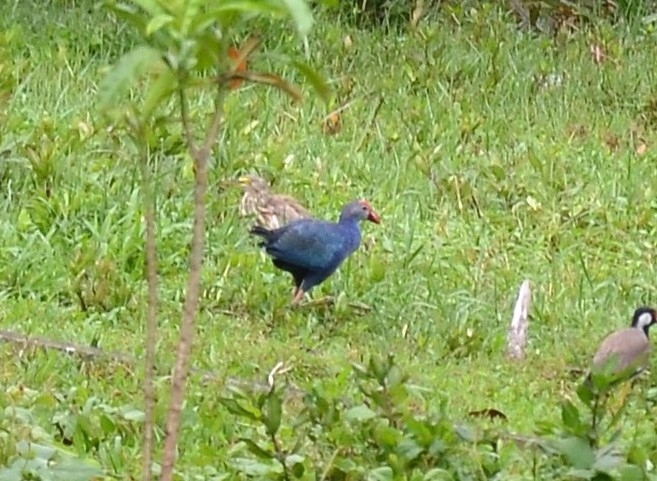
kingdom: Animalia
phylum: Chordata
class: Aves
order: Gruiformes
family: Rallidae
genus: Porphyrio
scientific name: Porphyrio porphyrio
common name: Purple swamphen
